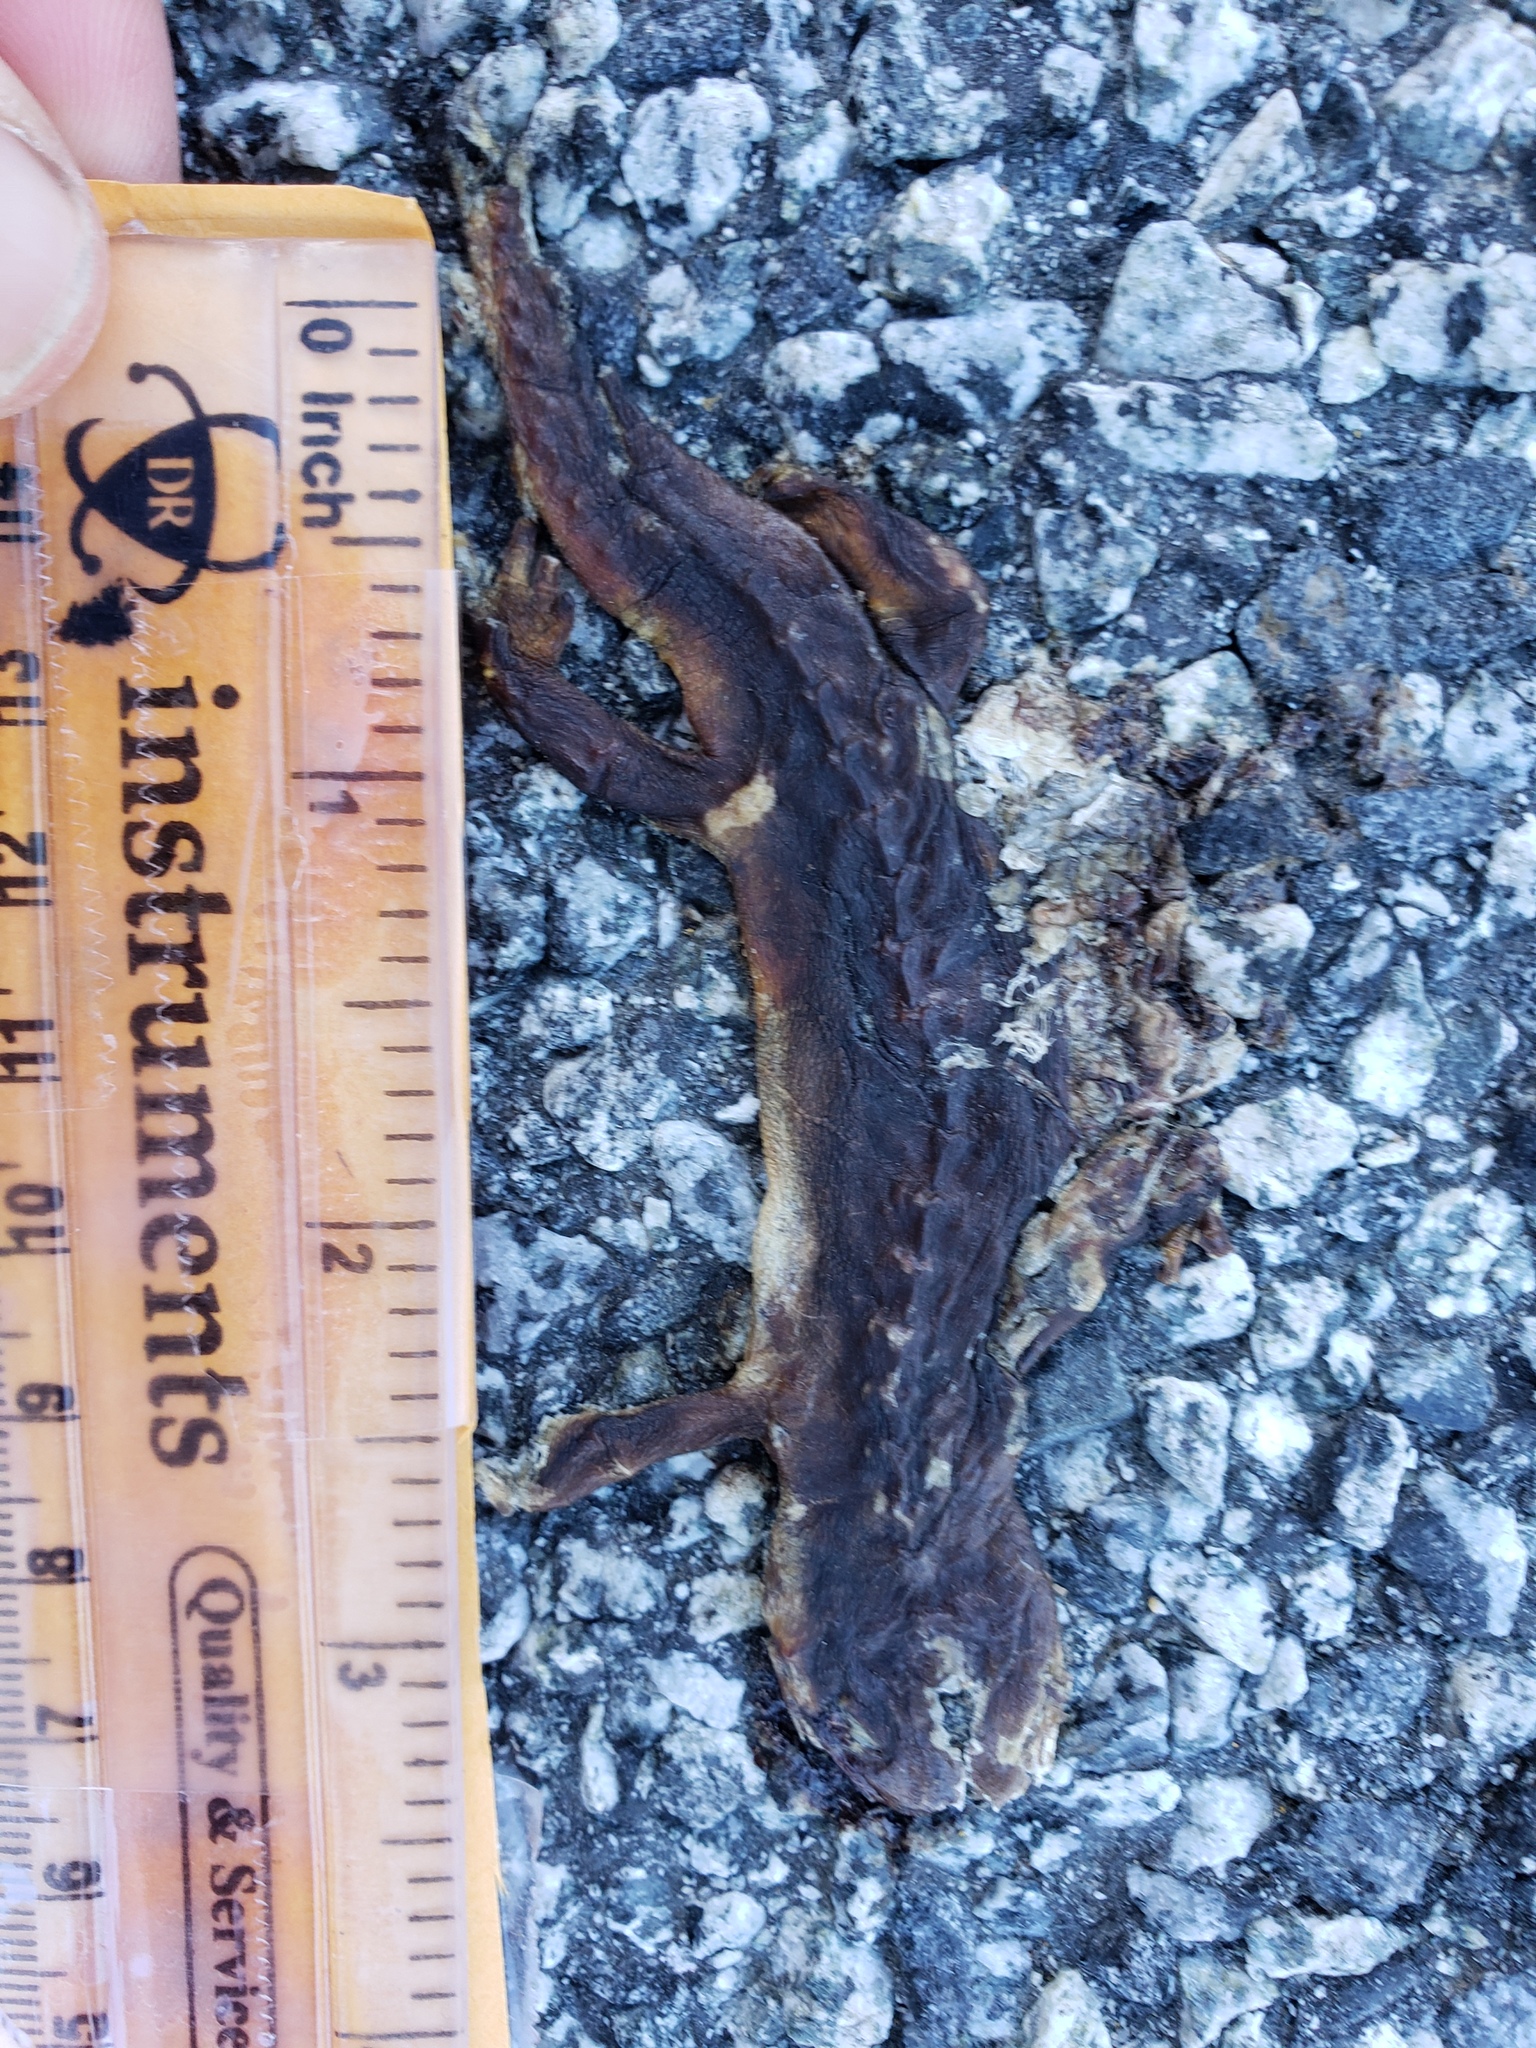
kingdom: Animalia
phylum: Chordata
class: Amphibia
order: Caudata
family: Salamandridae
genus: Taricha
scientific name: Taricha
